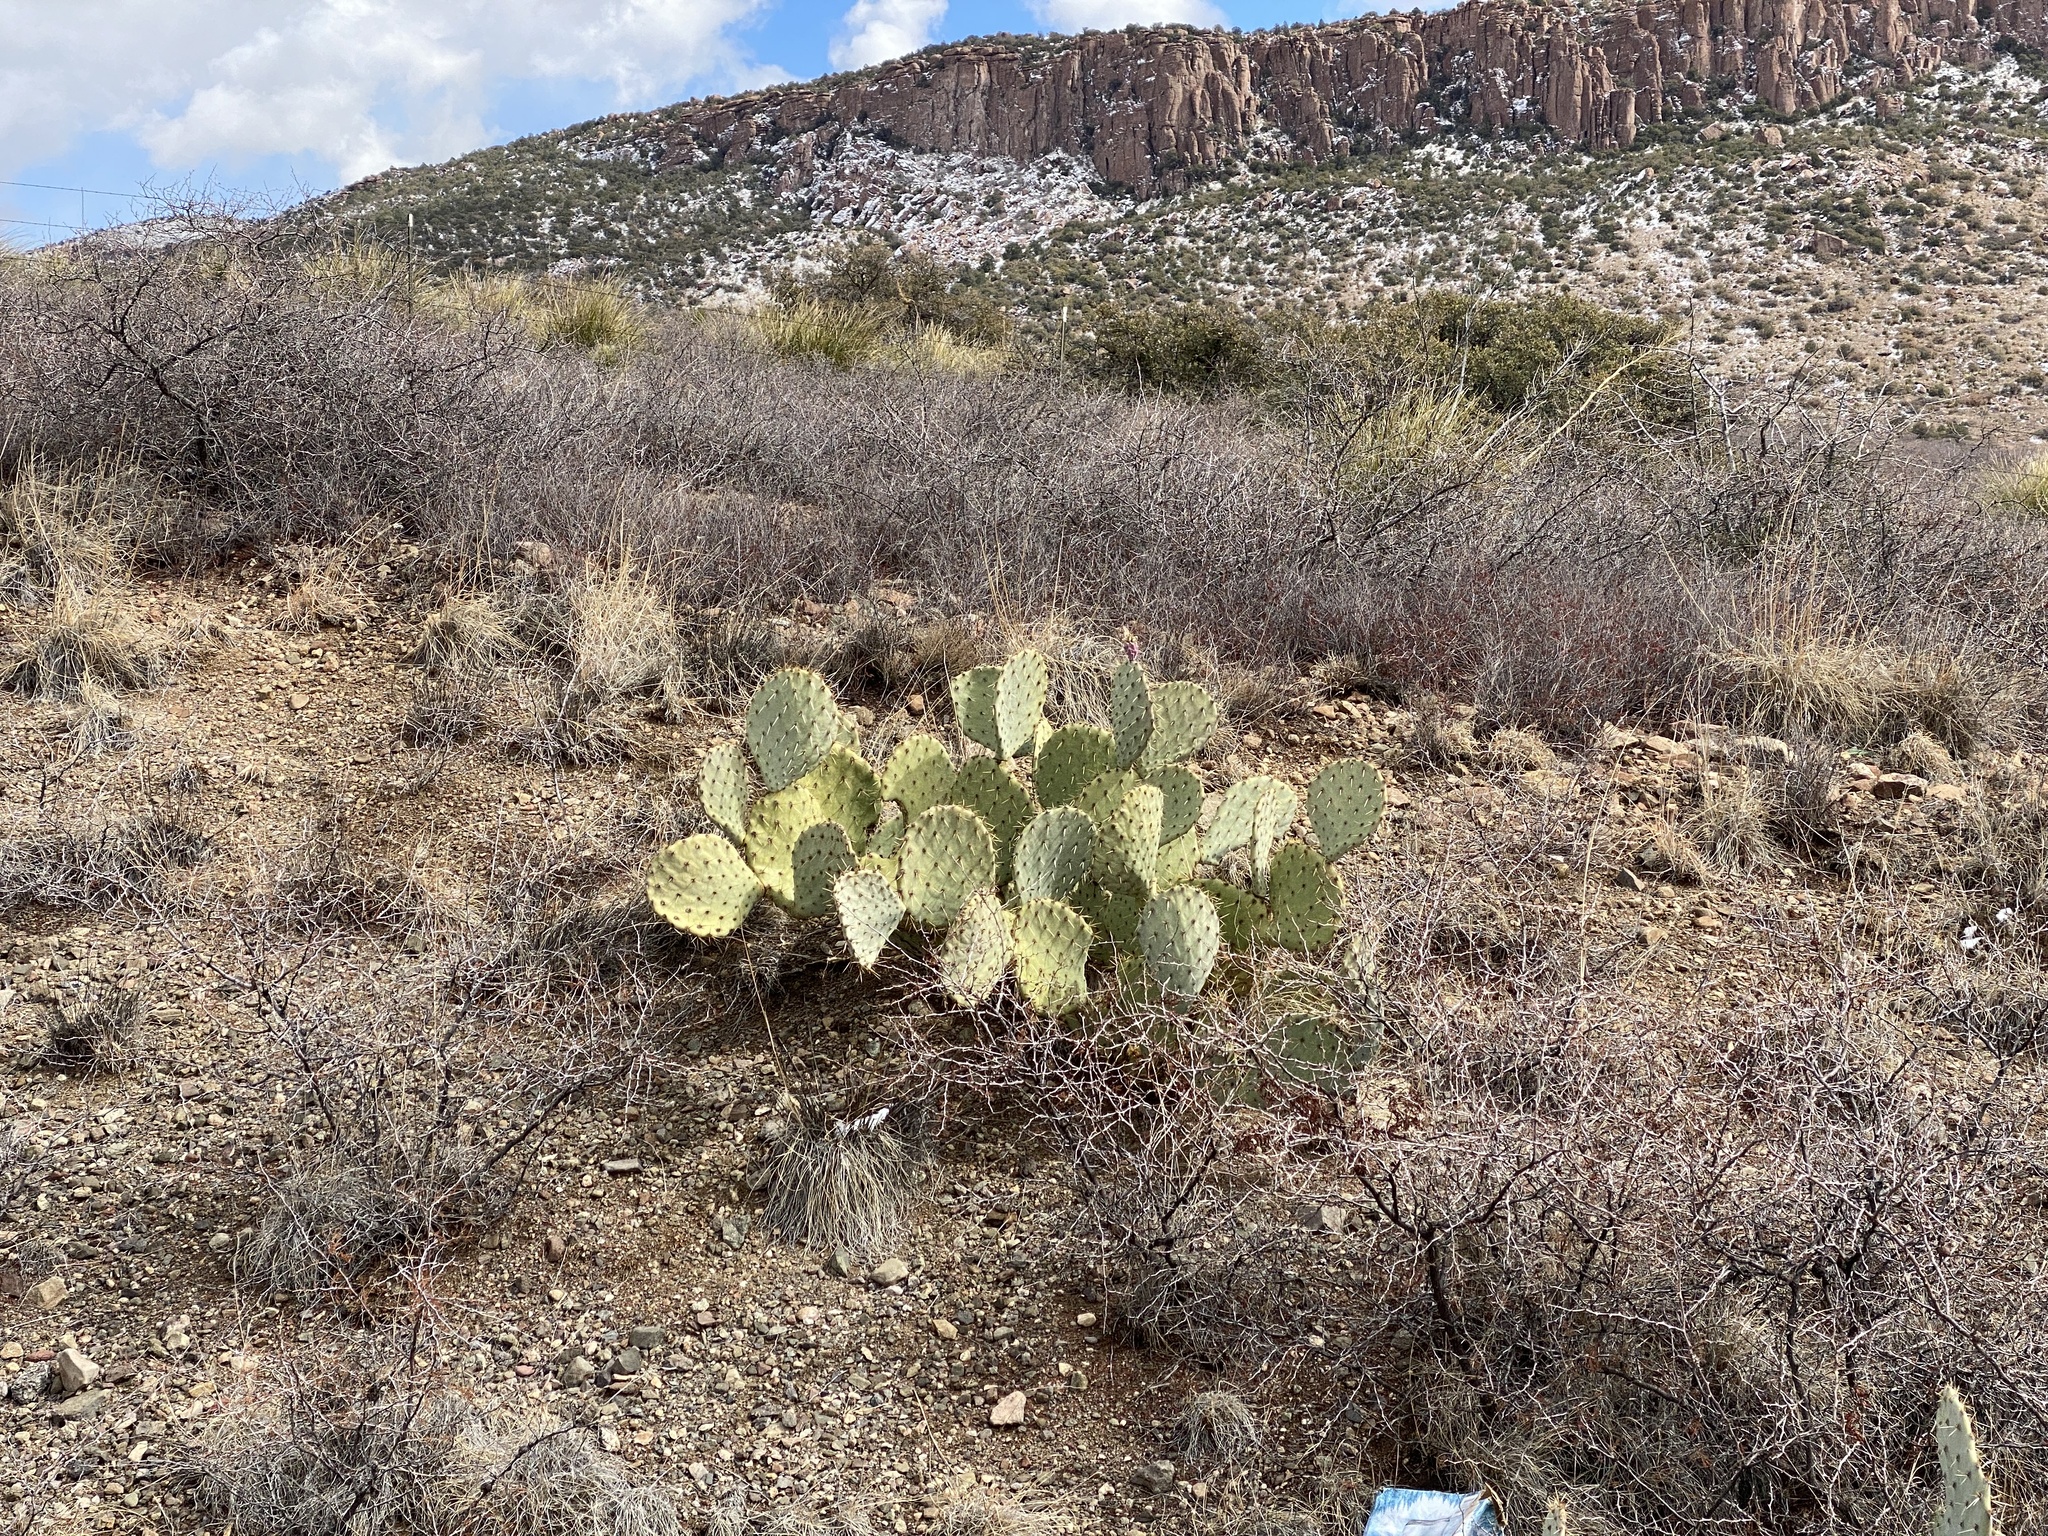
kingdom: Plantae
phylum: Tracheophyta
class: Magnoliopsida
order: Caryophyllales
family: Cactaceae
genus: Opuntia
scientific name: Opuntia engelmannii
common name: Cactus-apple
